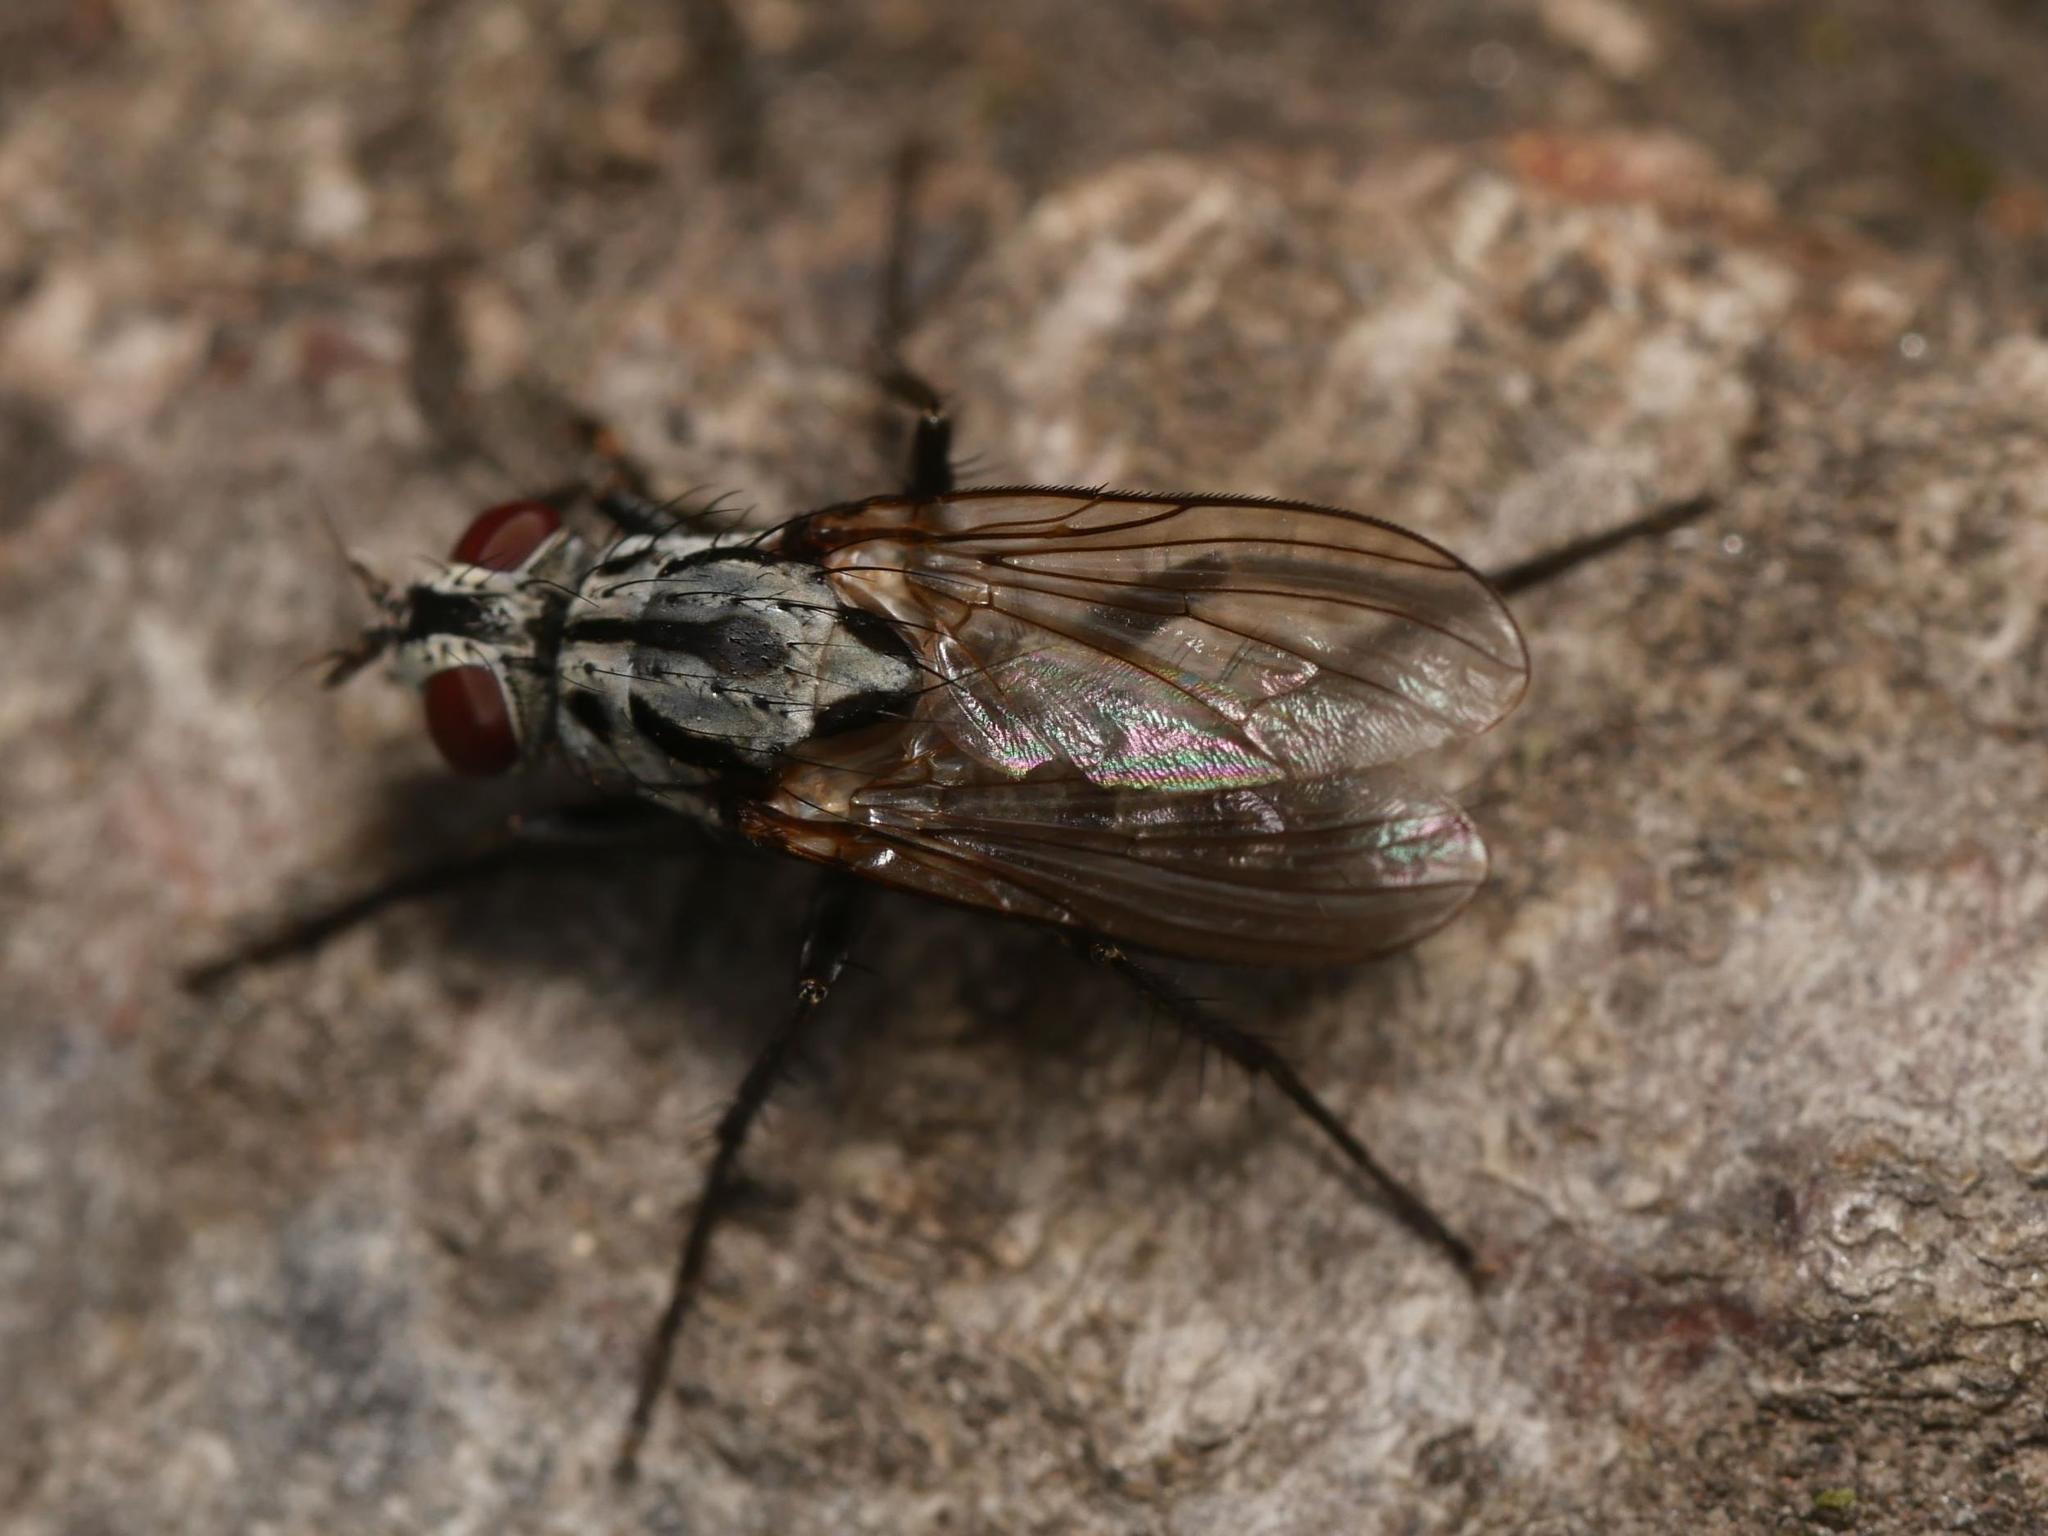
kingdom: Animalia
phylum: Arthropoda
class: Insecta
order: Diptera
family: Anthomyiidae
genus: Eustalomyia
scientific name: Eustalomyia hilaris
